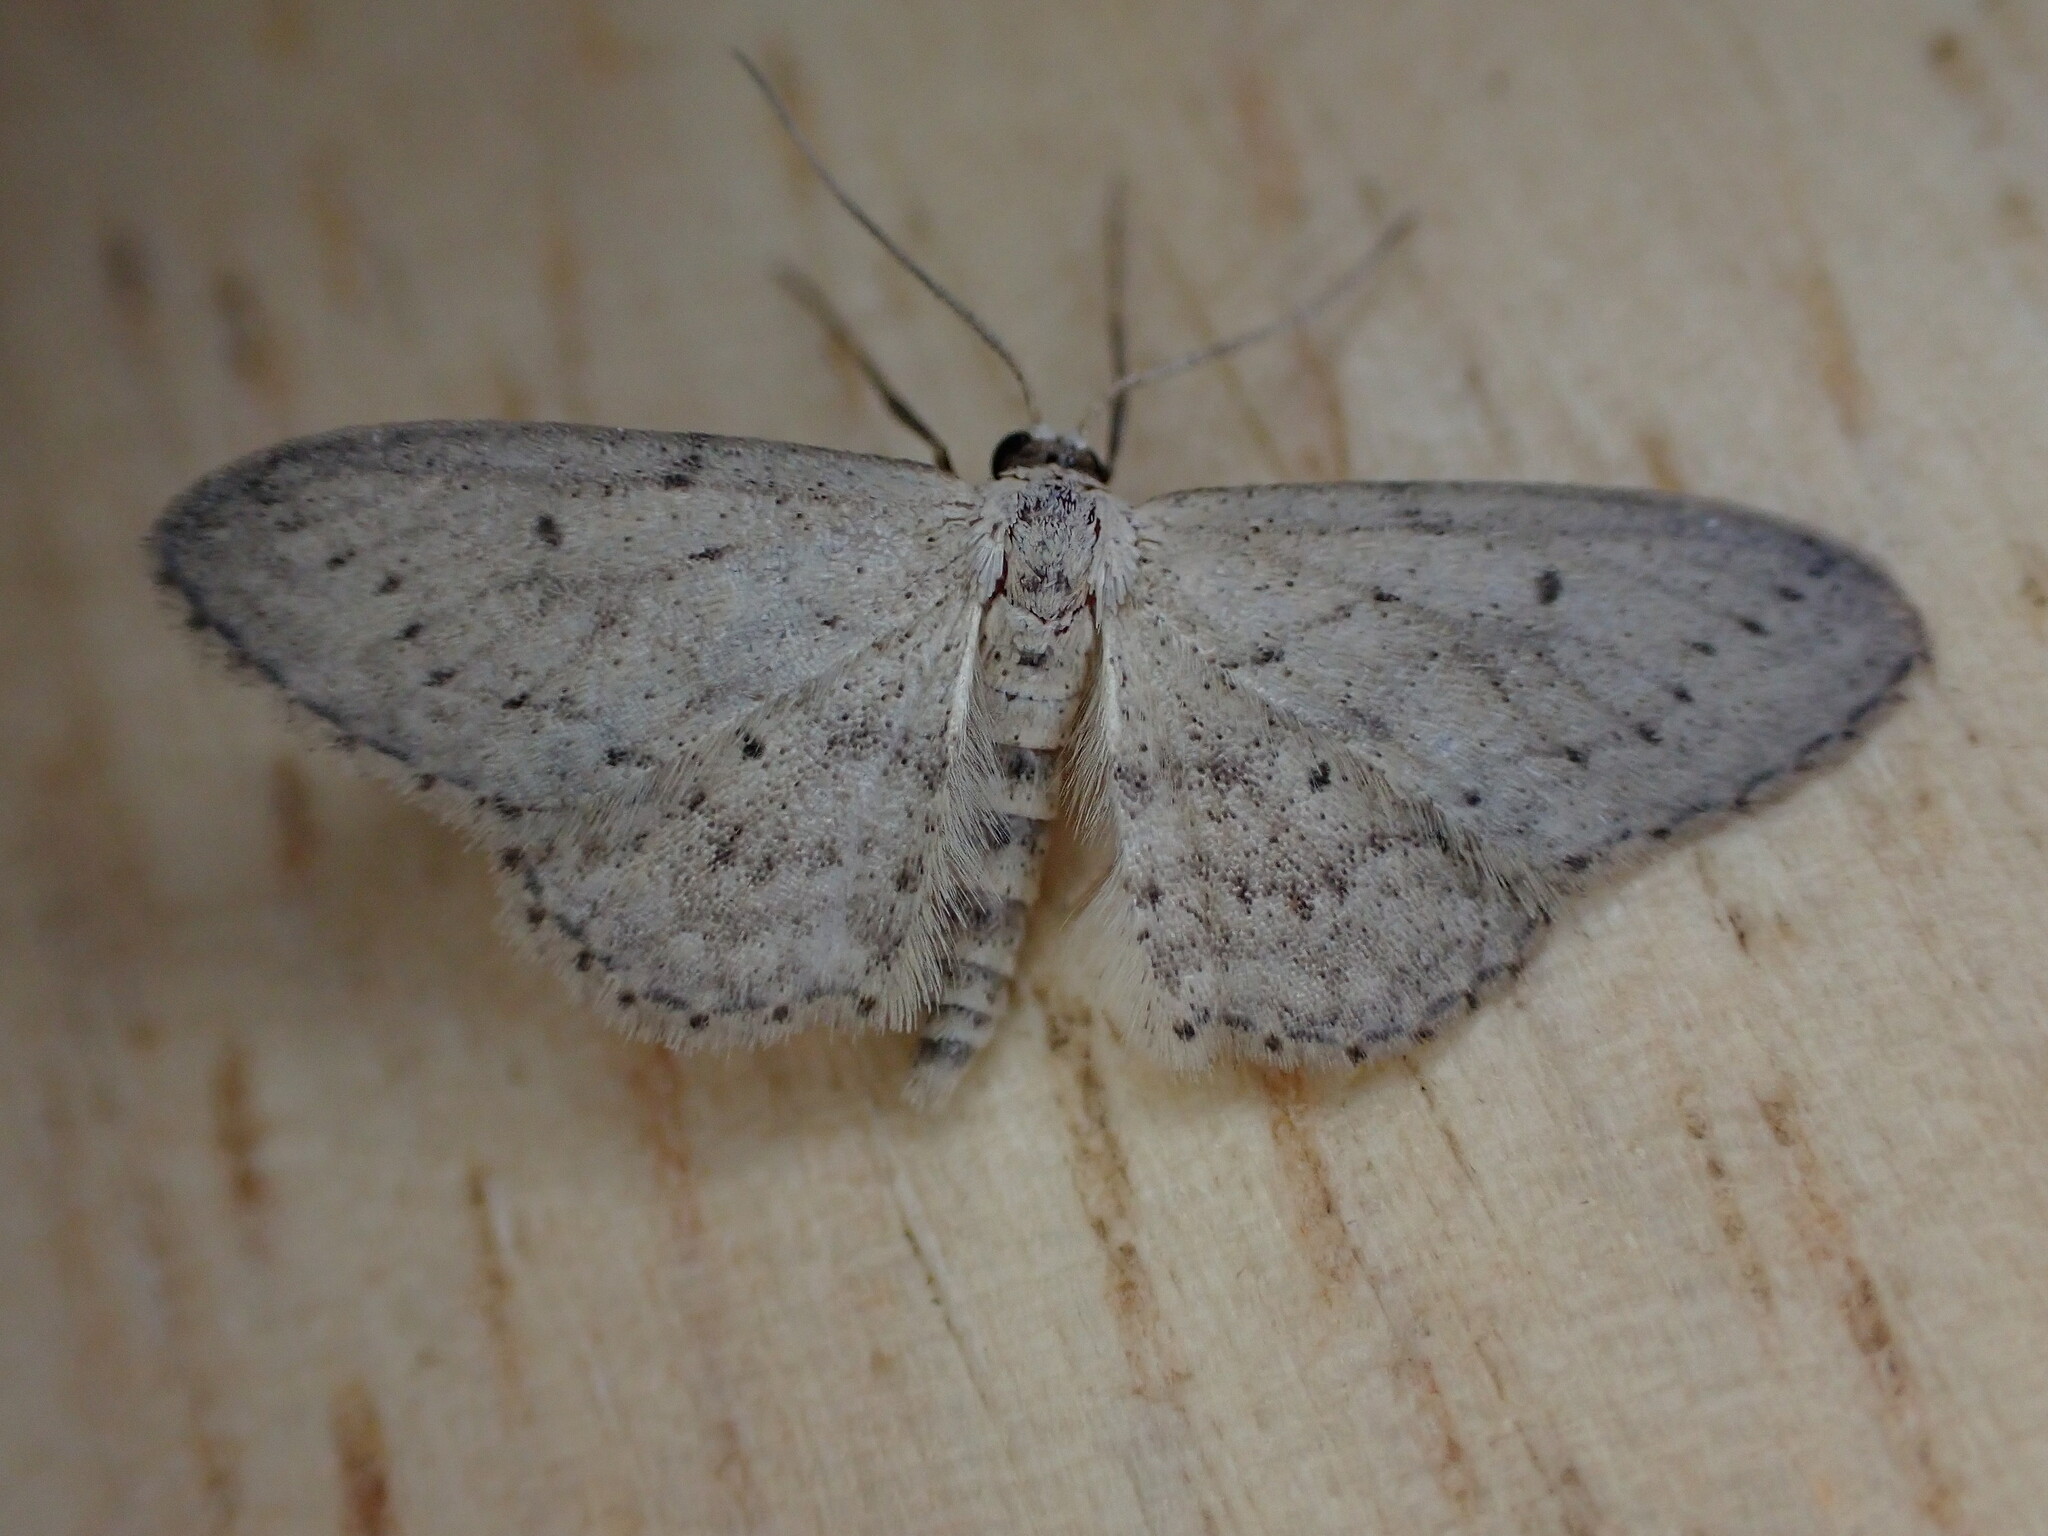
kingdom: Animalia
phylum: Arthropoda
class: Insecta
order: Lepidoptera
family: Geometridae
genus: Idaea
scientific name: Idaea seriata
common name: Small dusty wave
